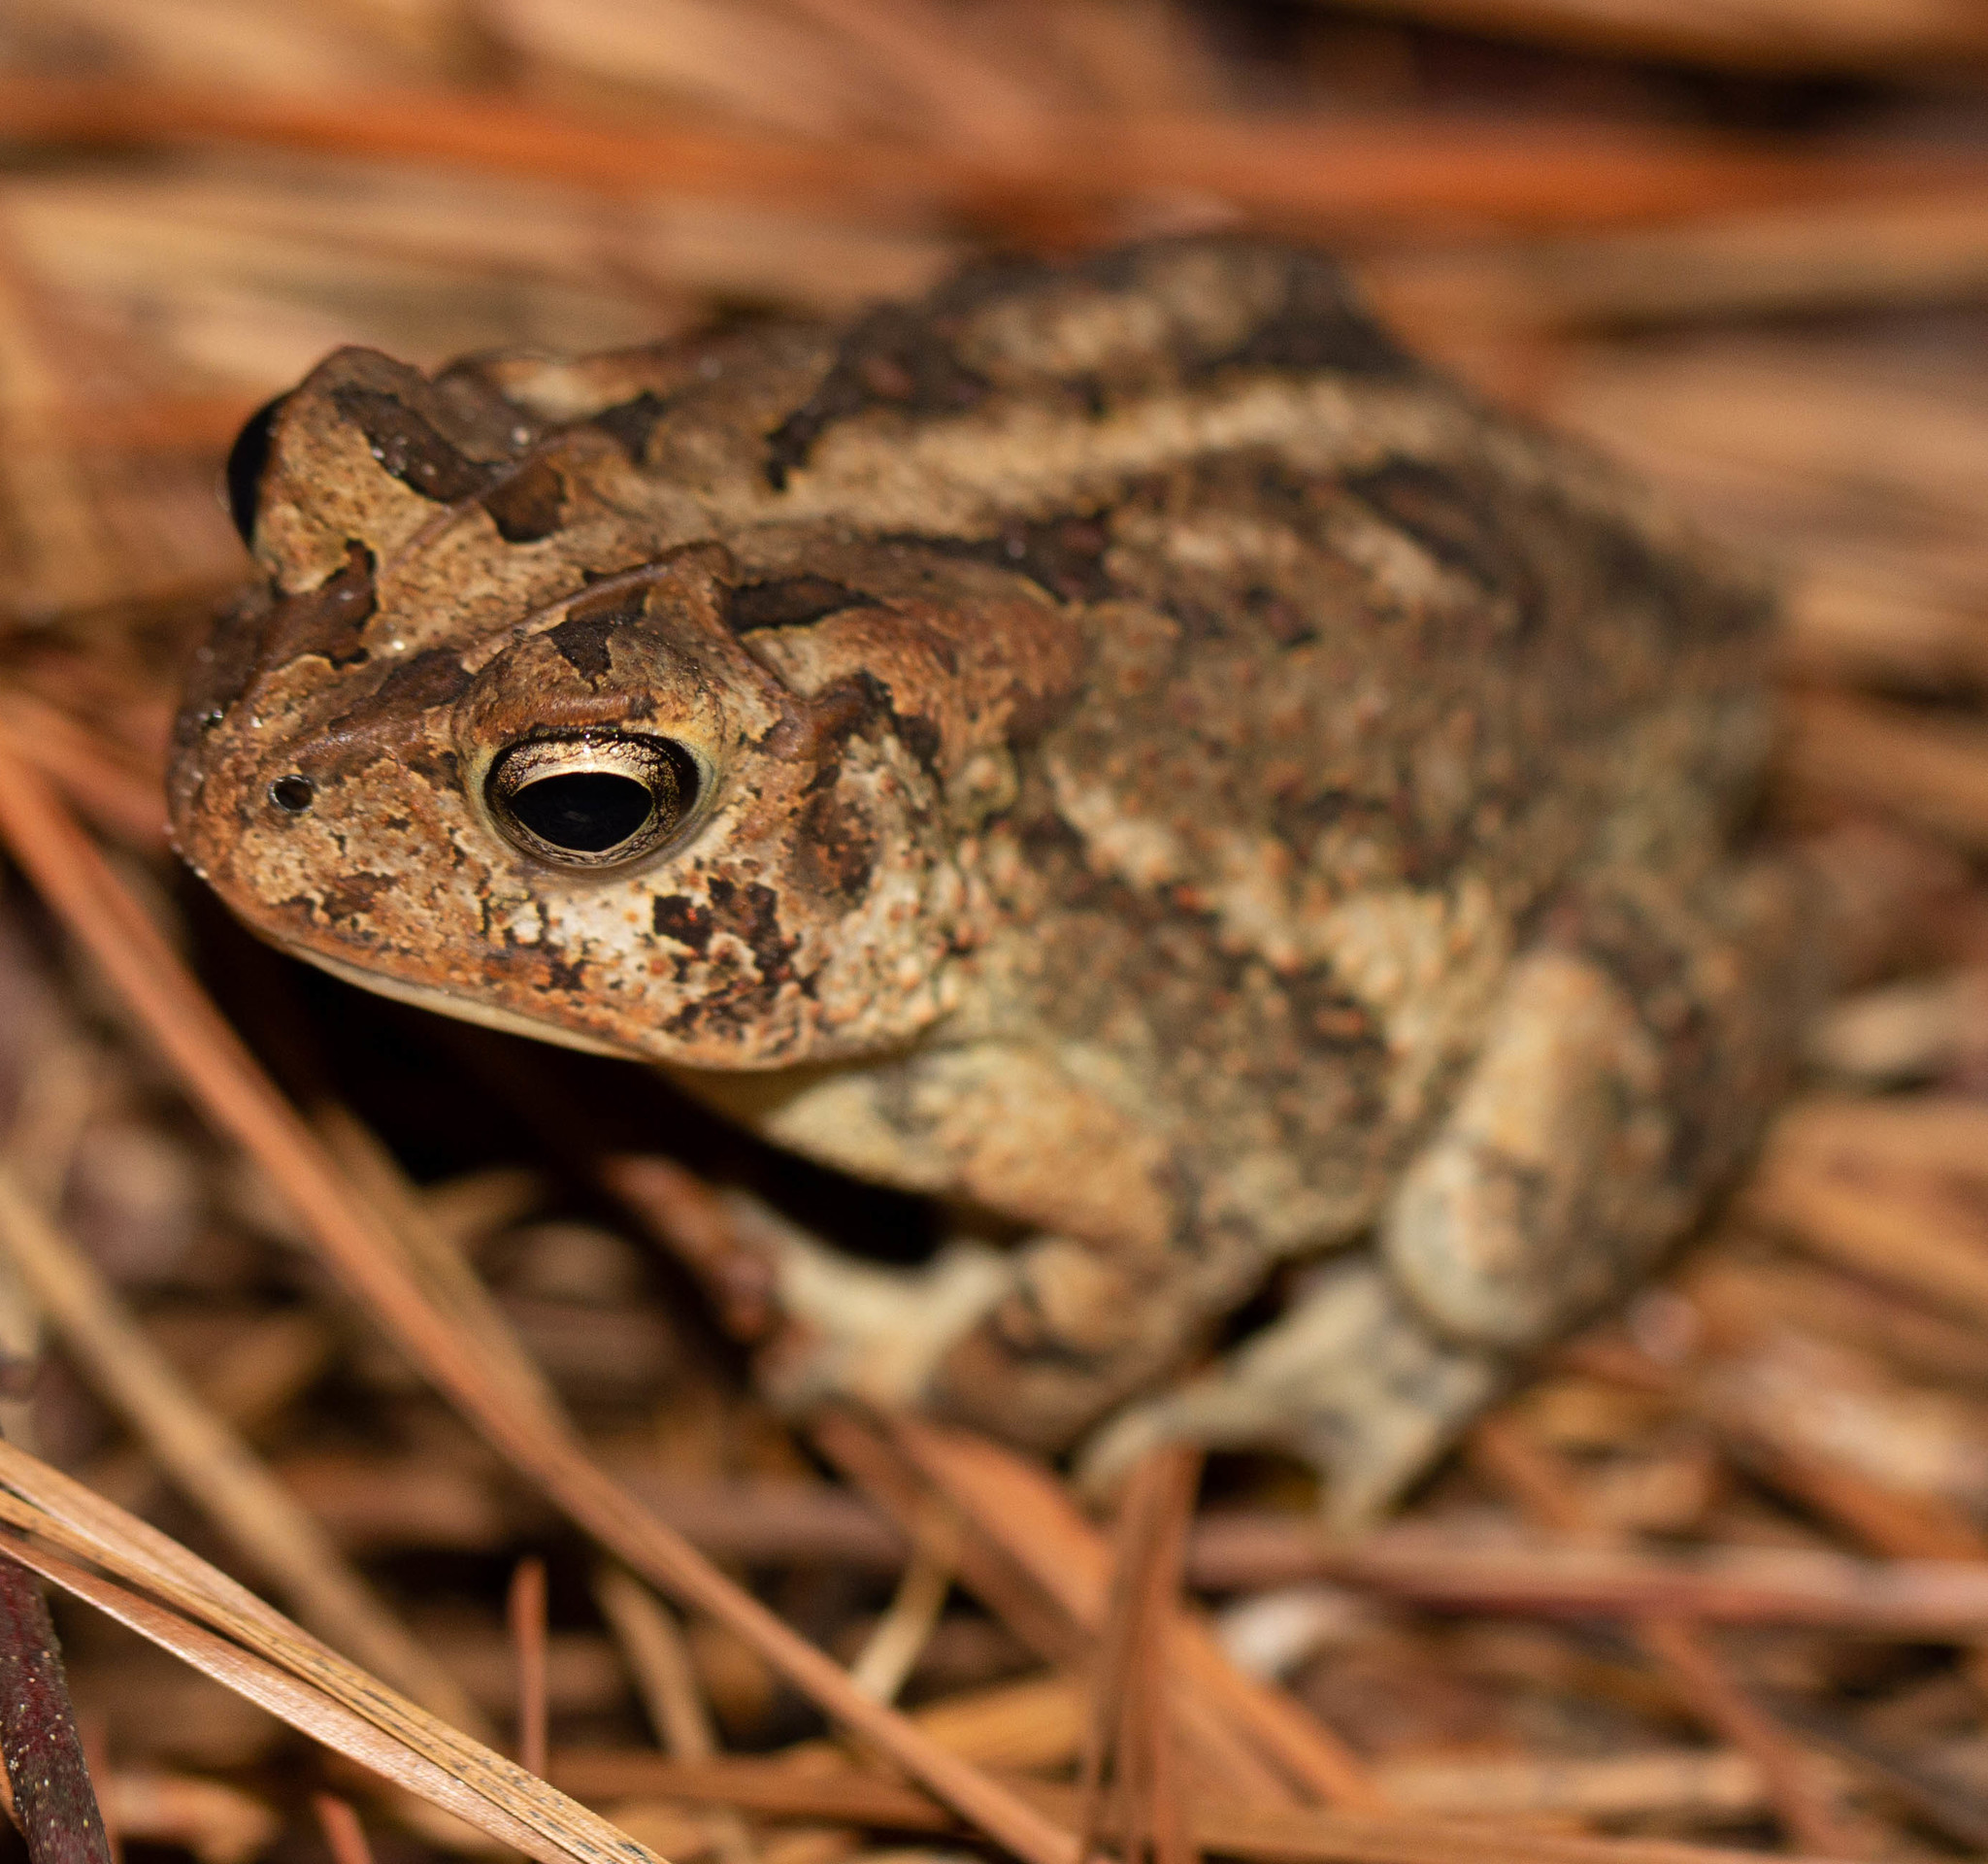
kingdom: Animalia
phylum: Chordata
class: Amphibia
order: Anura
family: Bufonidae
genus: Anaxyrus
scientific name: Anaxyrus terrestris
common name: Southern toad
